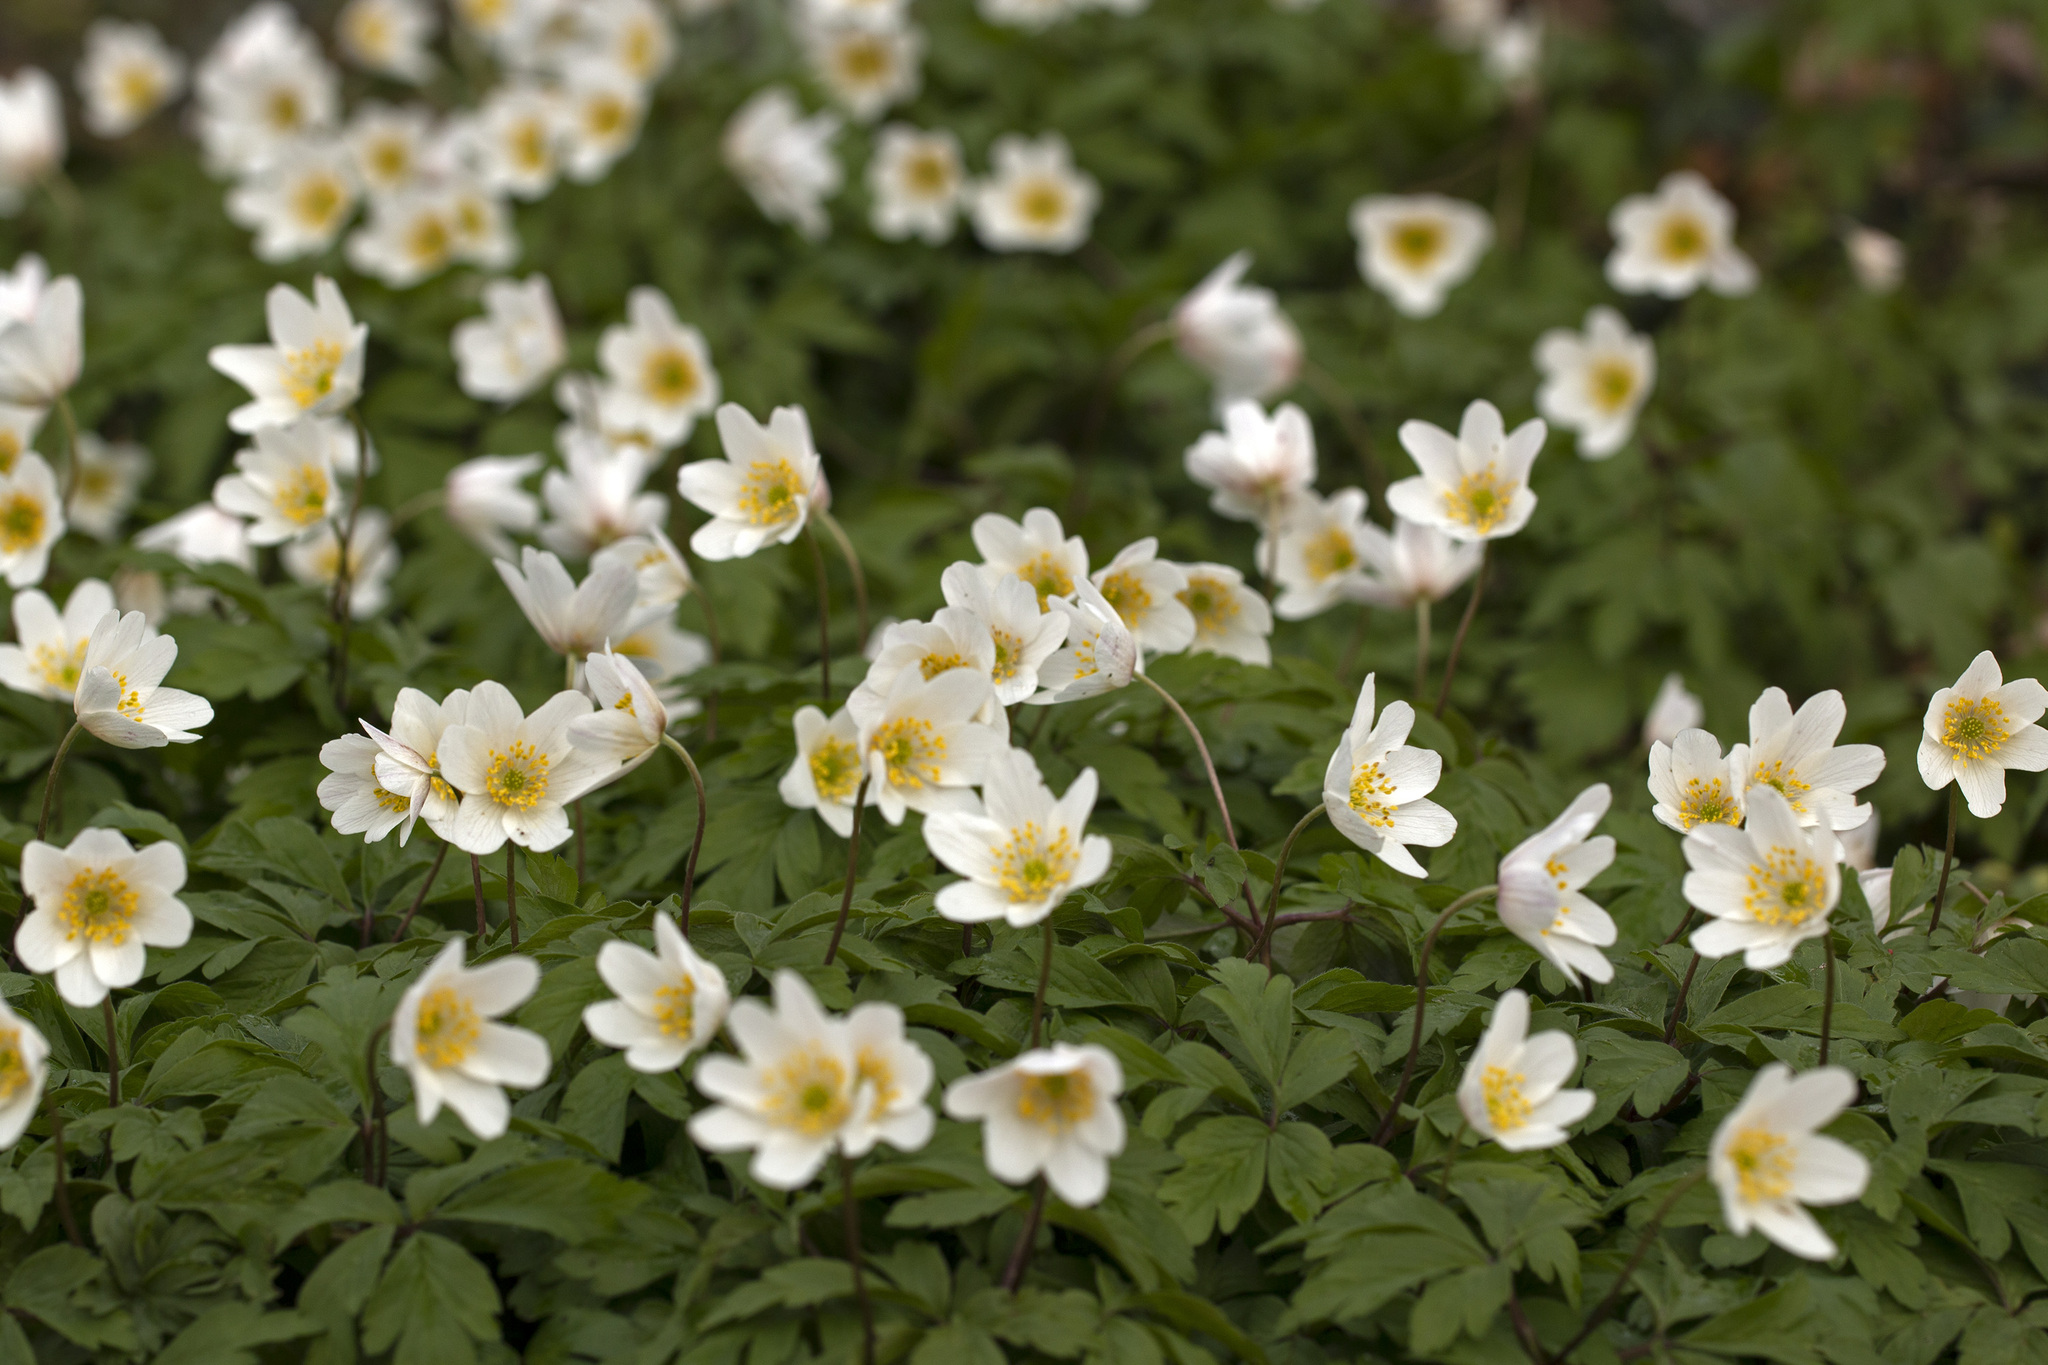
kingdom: Plantae
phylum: Tracheophyta
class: Magnoliopsida
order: Ranunculales
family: Ranunculaceae
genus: Anemone
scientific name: Anemone nemorosa
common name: Wood anemone
